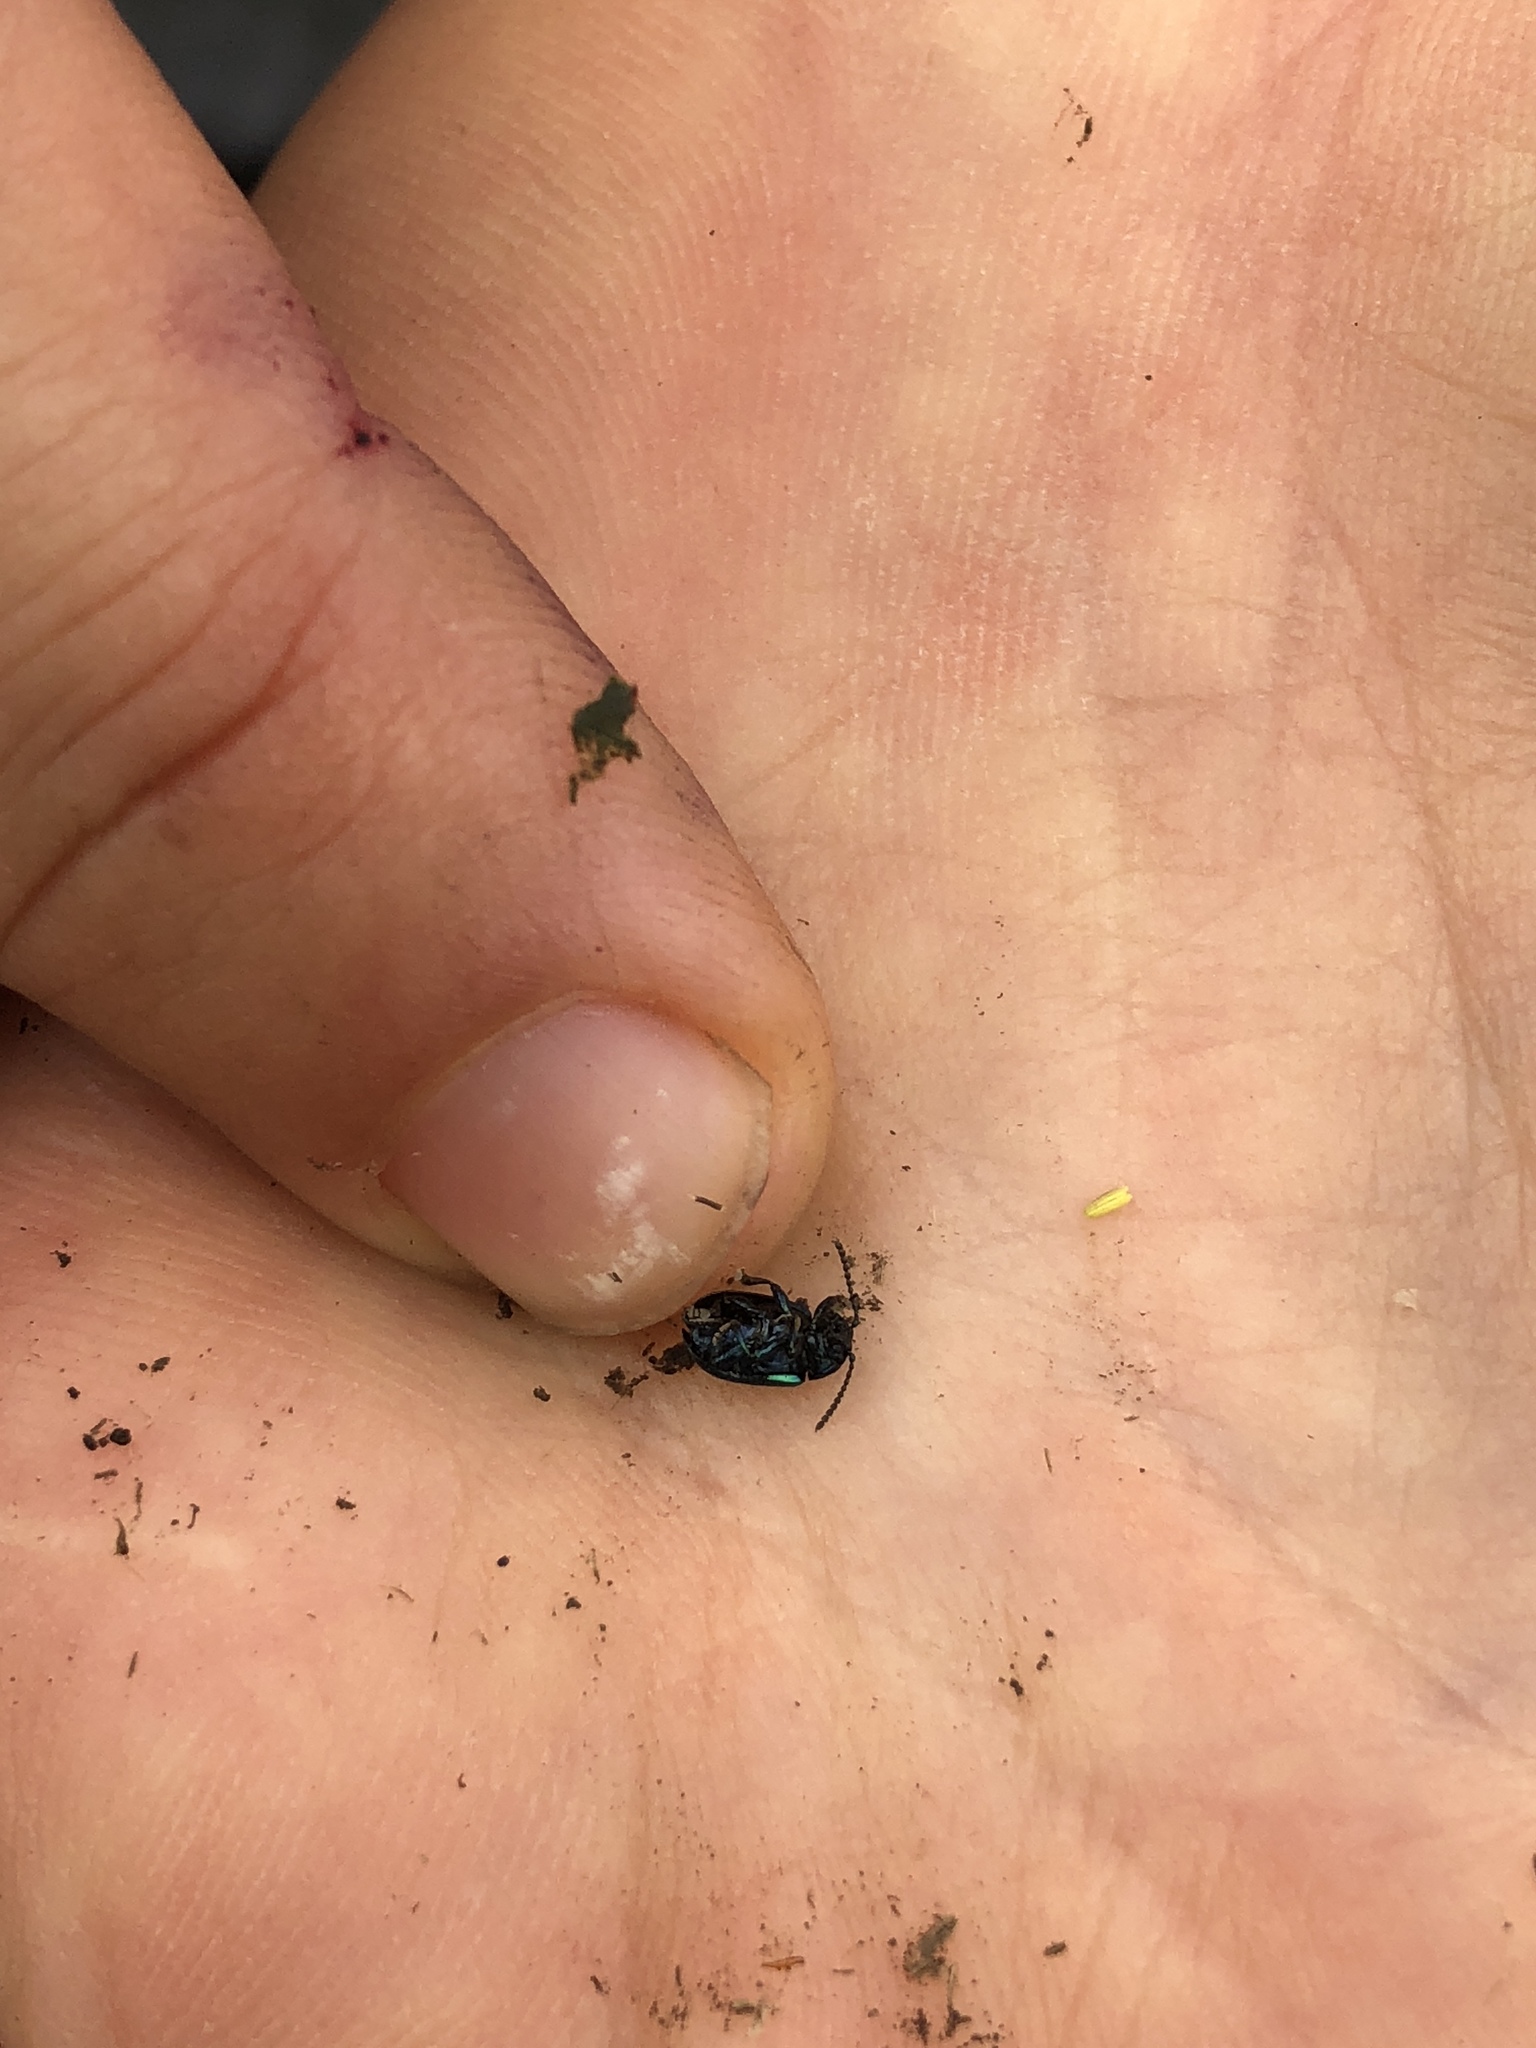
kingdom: Animalia
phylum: Arthropoda
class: Insecta
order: Coleoptera
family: Chrysomelidae
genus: Gastrophysa
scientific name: Gastrophysa viridula
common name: Green dock beetle
